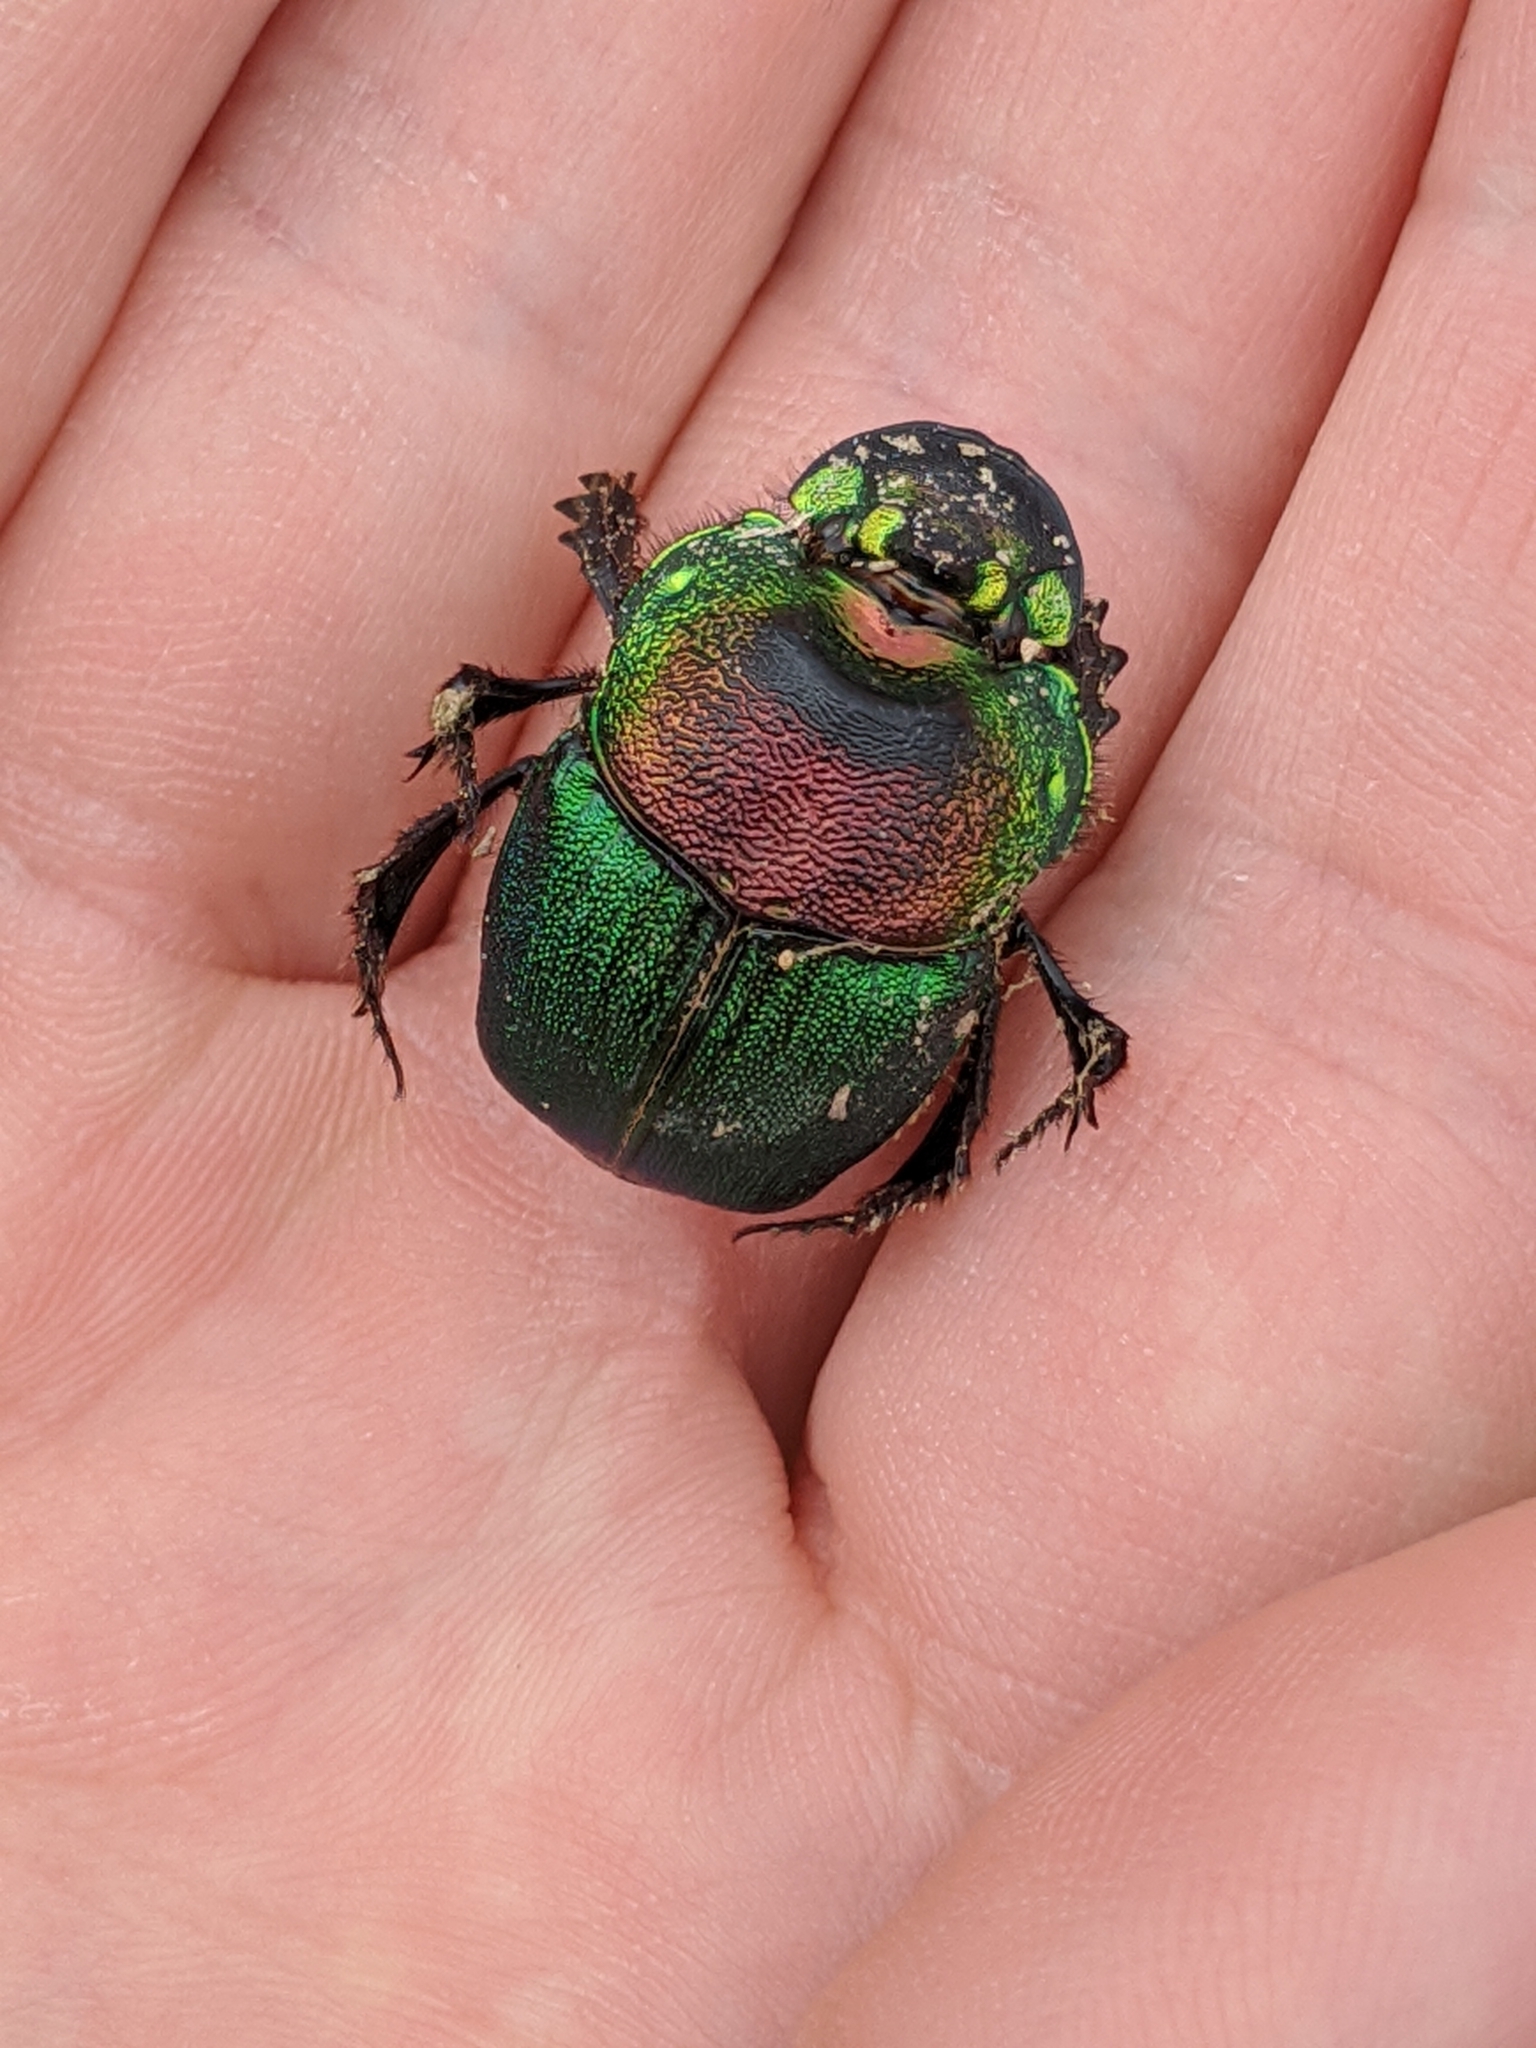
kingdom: Animalia
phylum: Arthropoda
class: Insecta
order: Coleoptera
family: Scarabaeidae
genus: Phanaeus
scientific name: Phanaeus difformis
